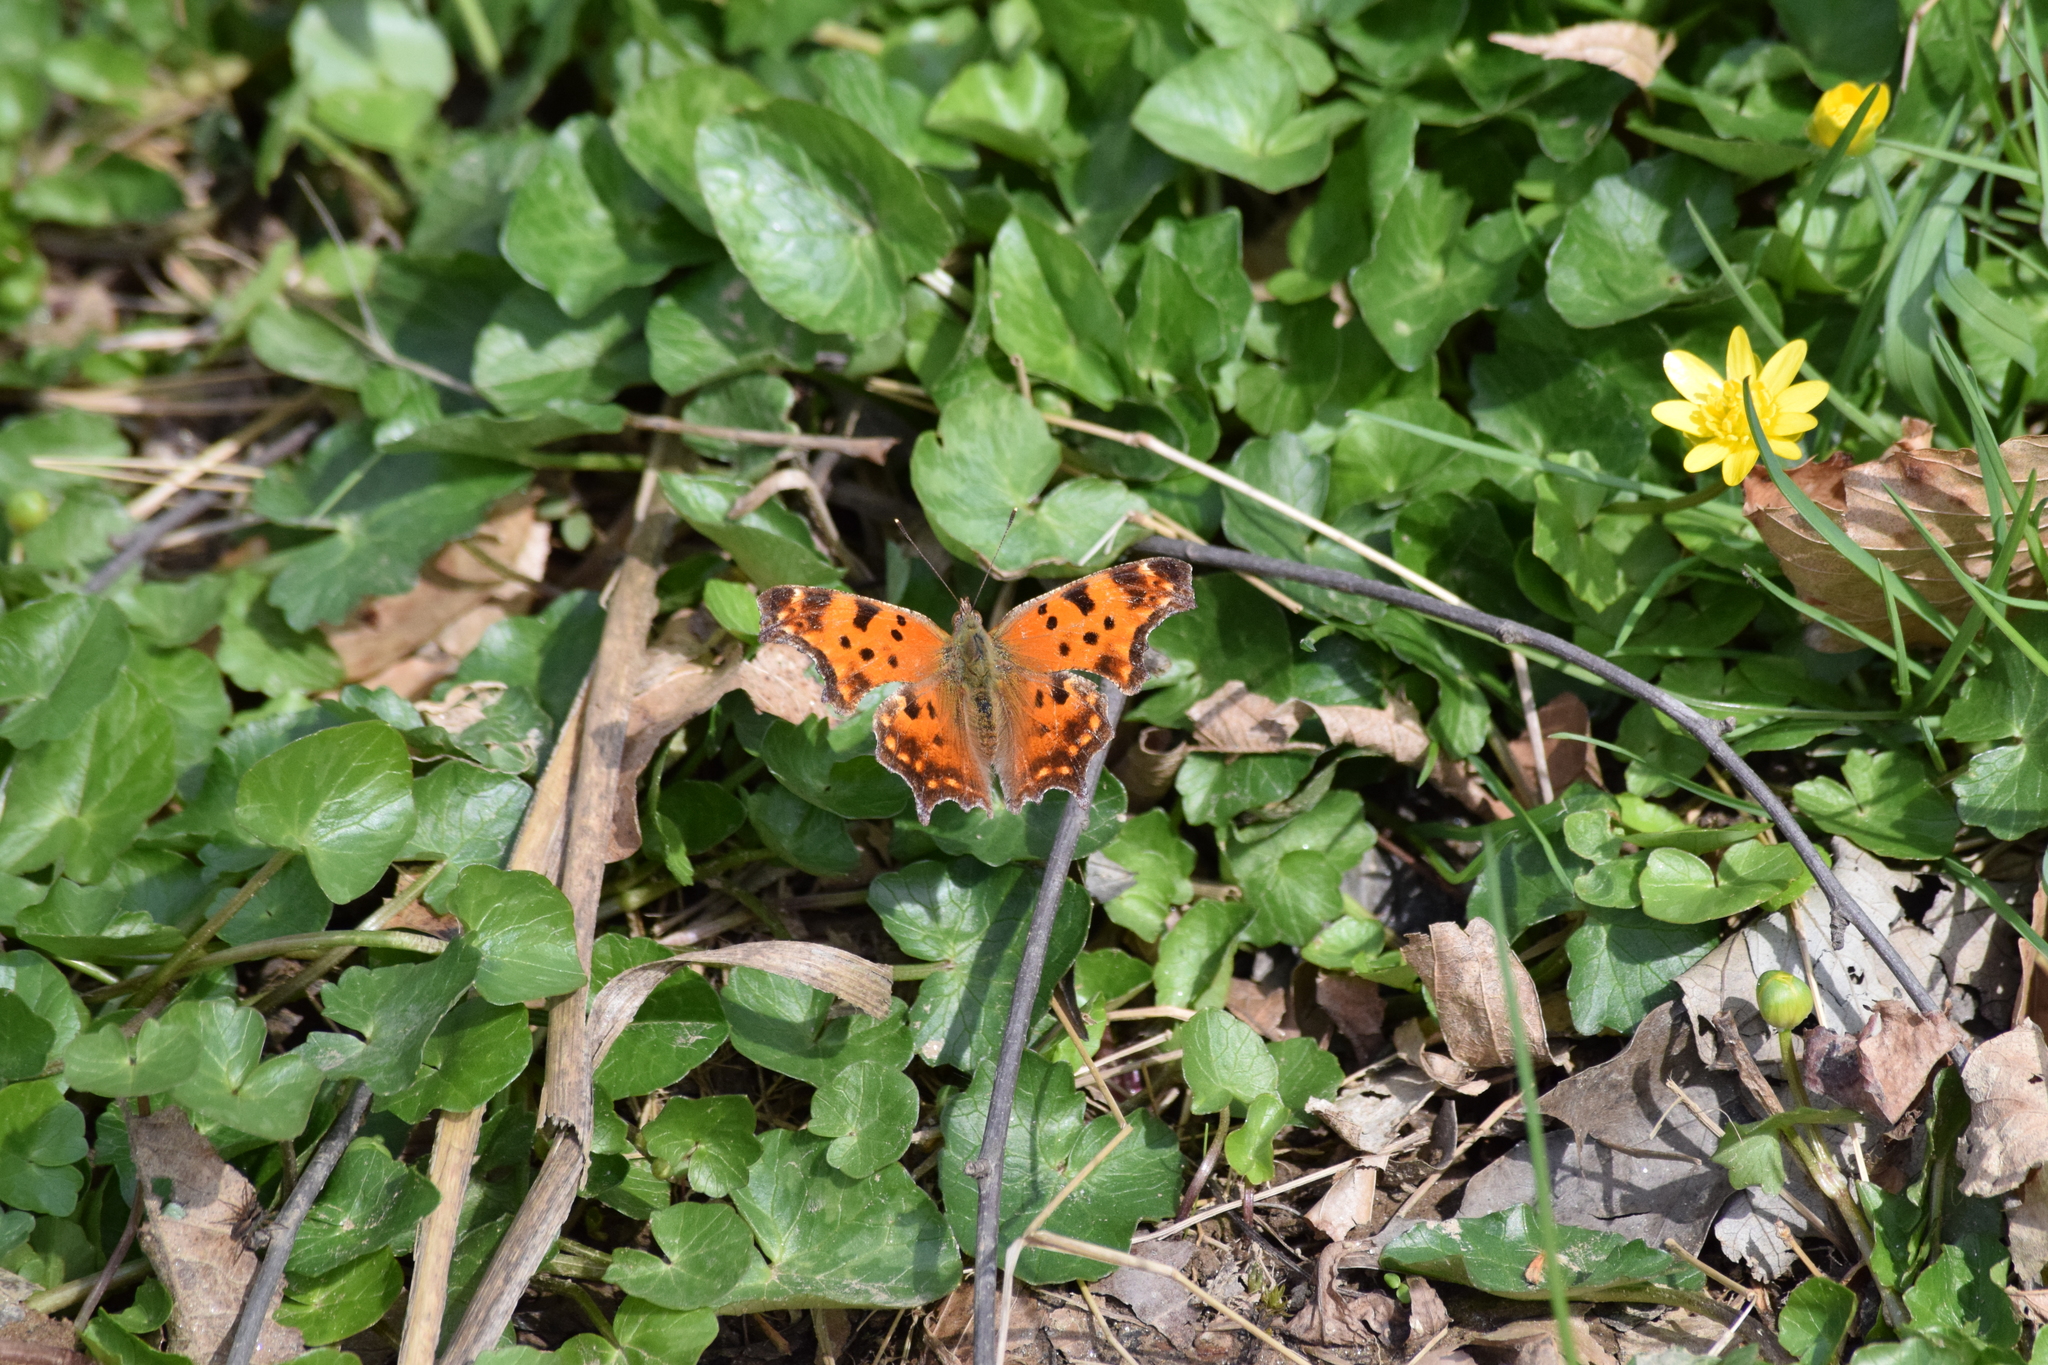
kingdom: Animalia
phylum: Arthropoda
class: Insecta
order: Lepidoptera
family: Nymphalidae
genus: Polygonia
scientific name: Polygonia comma
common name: Eastern comma
